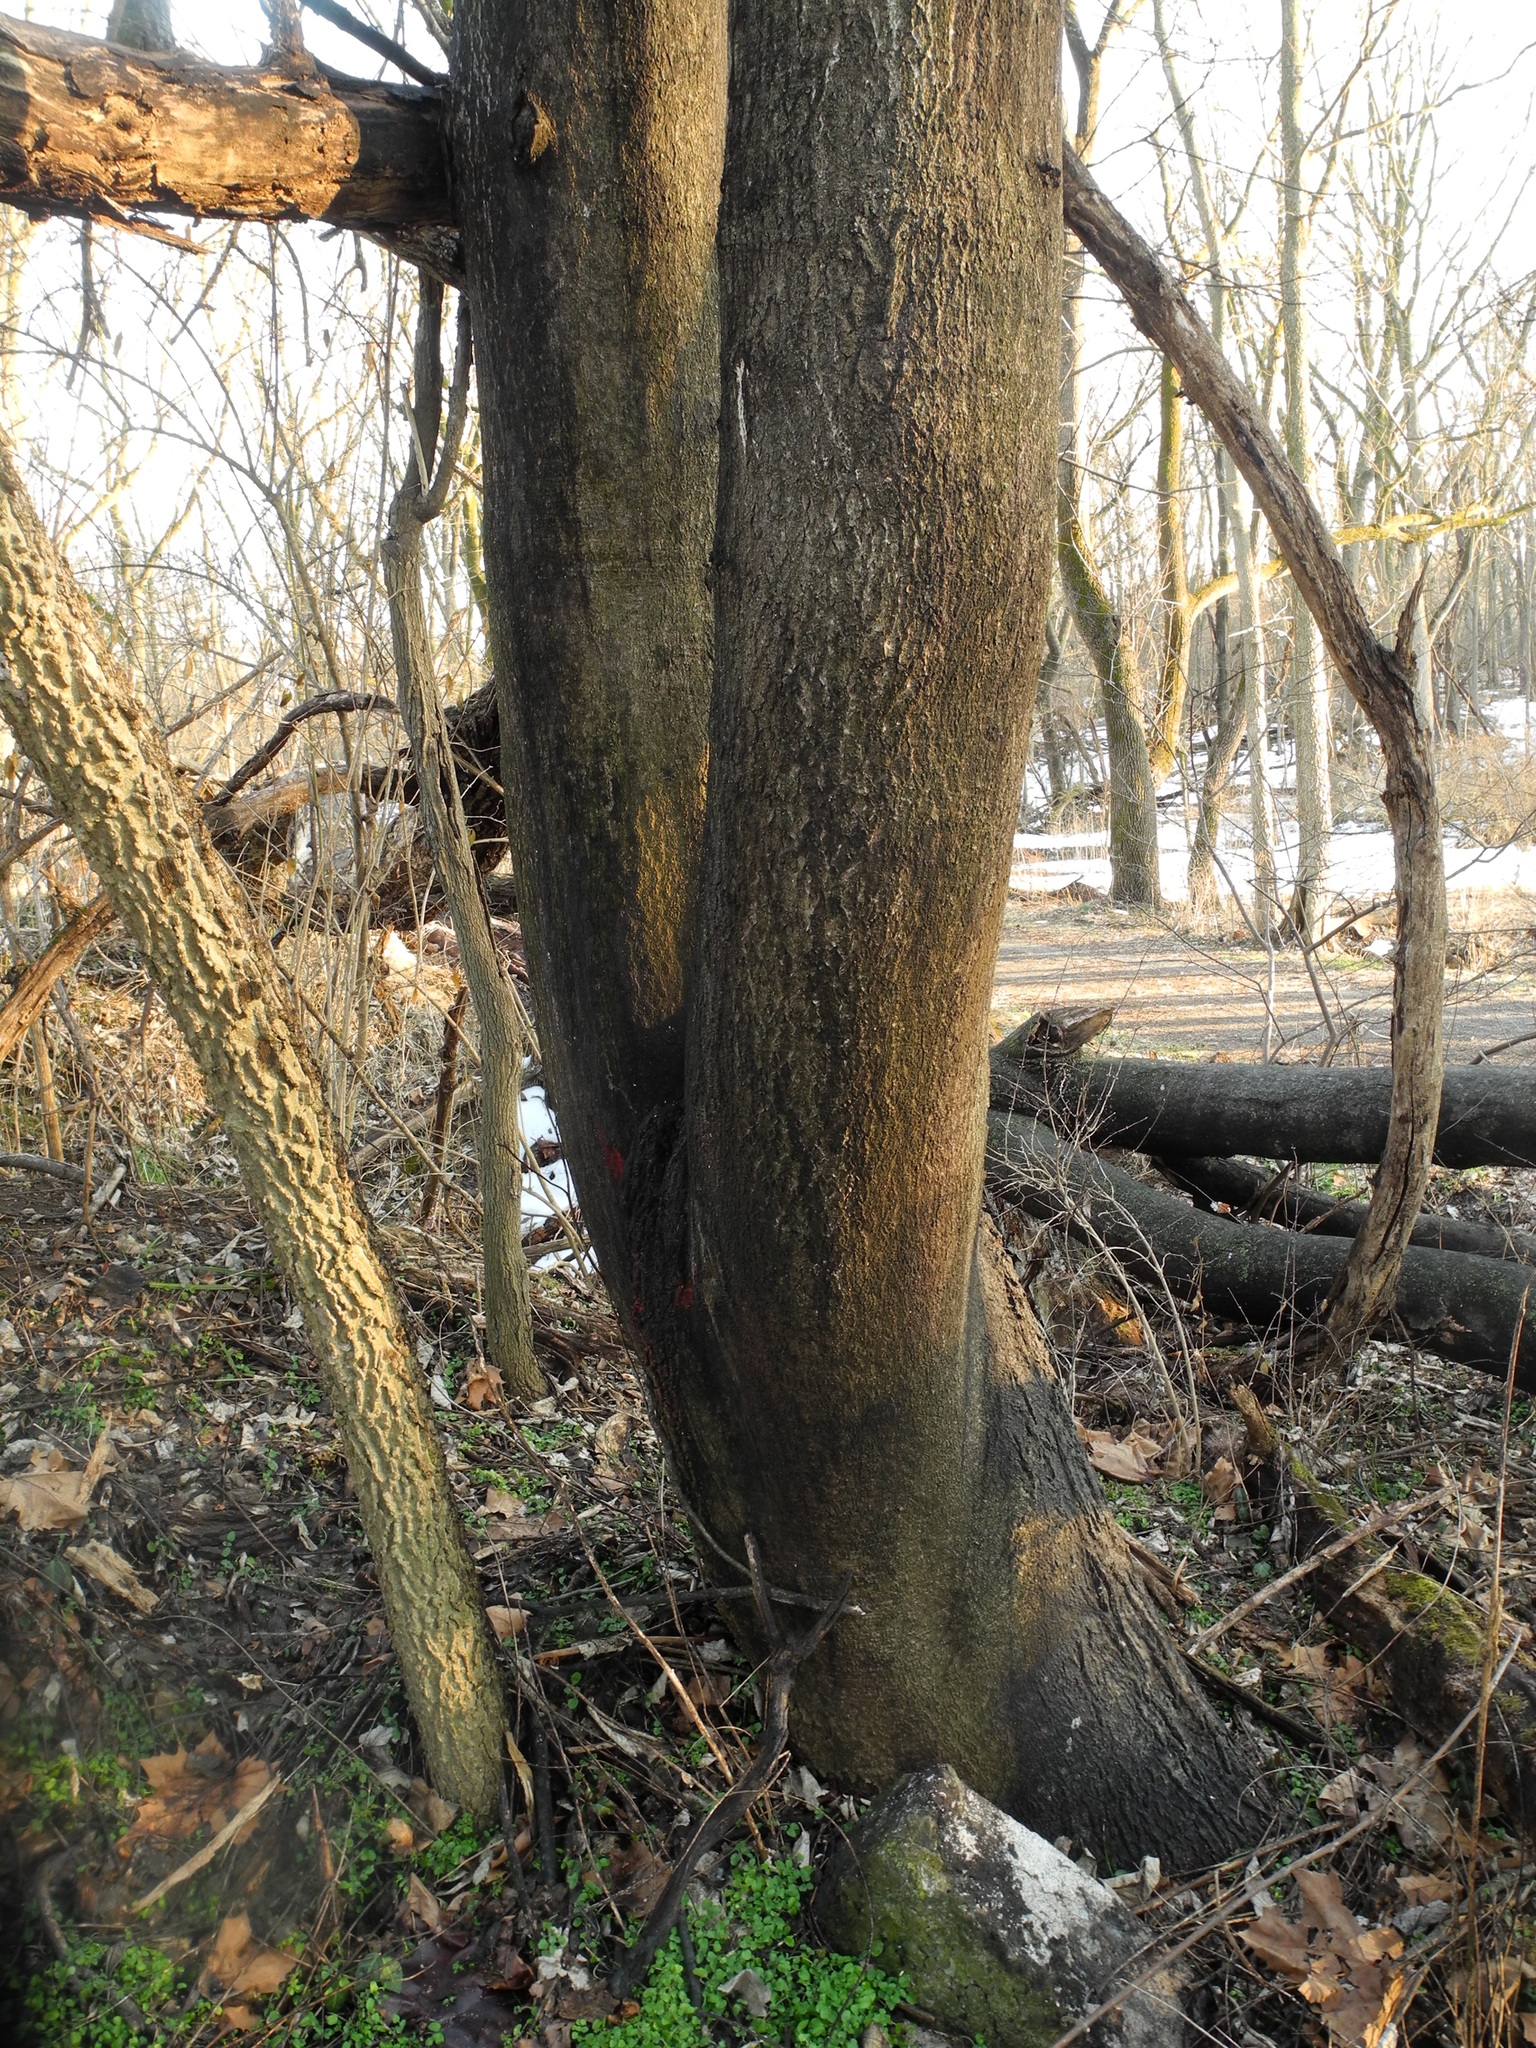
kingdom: Plantae
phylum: Tracheophyta
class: Magnoliopsida
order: Sapindales
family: Simaroubaceae
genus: Ailanthus
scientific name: Ailanthus altissima
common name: Tree-of-heaven
